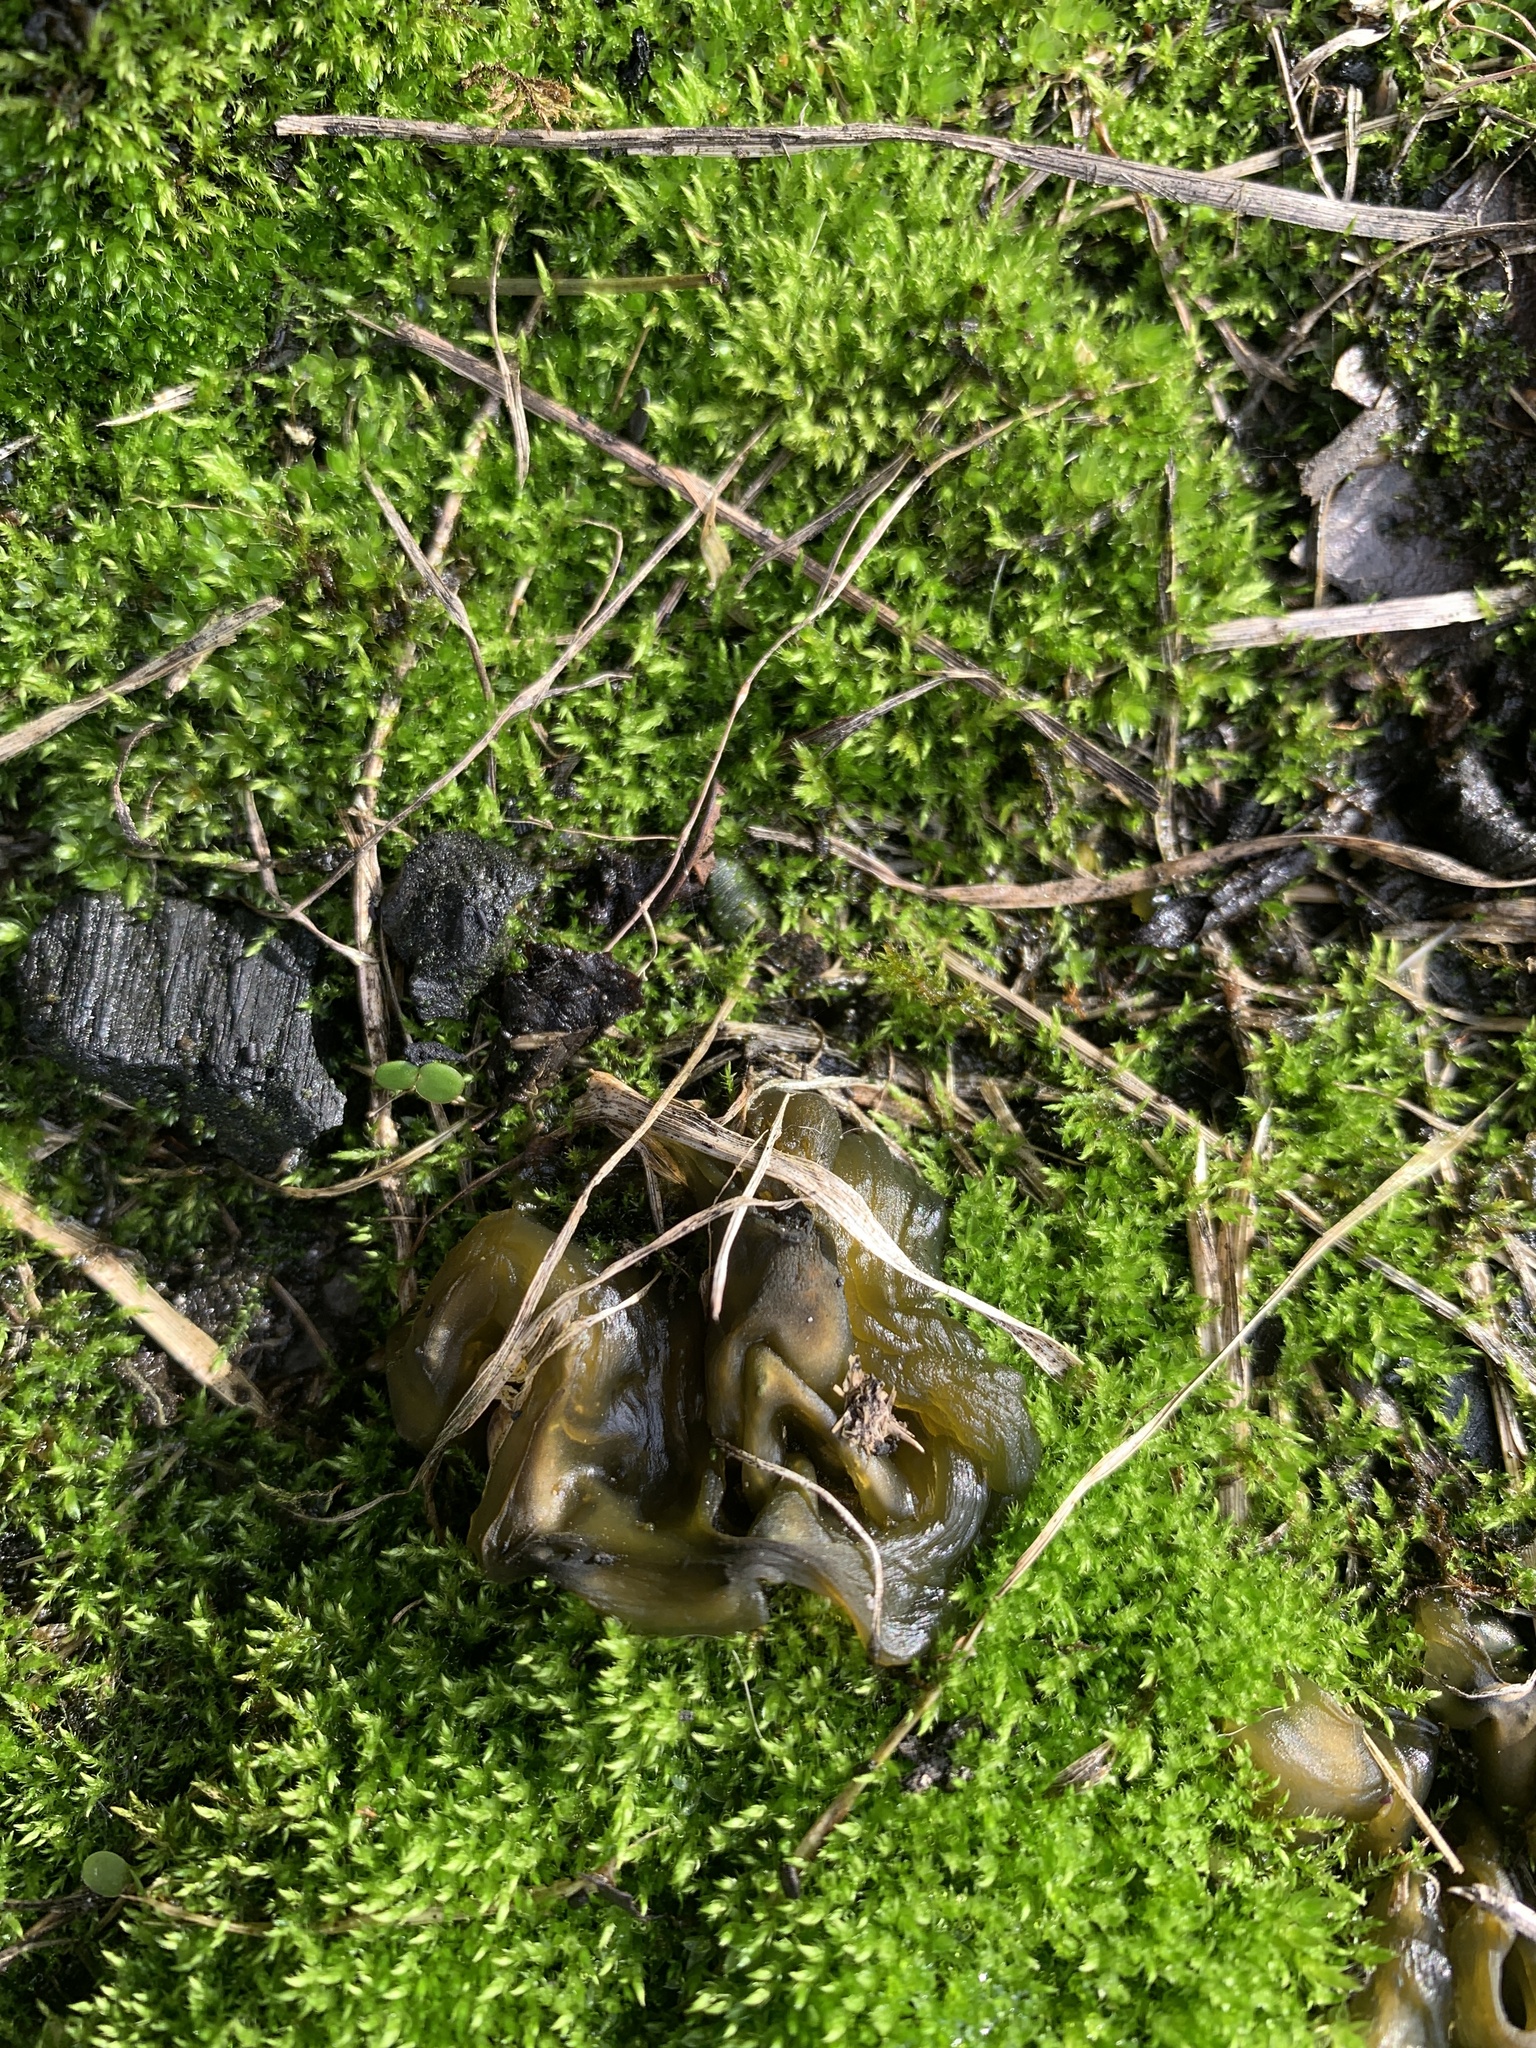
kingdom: Bacteria
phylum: Cyanobacteria
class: Cyanobacteriia
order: Cyanobacteriales
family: Nostocaceae
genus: Nostoc
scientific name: Nostoc commune
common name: Star jelly
